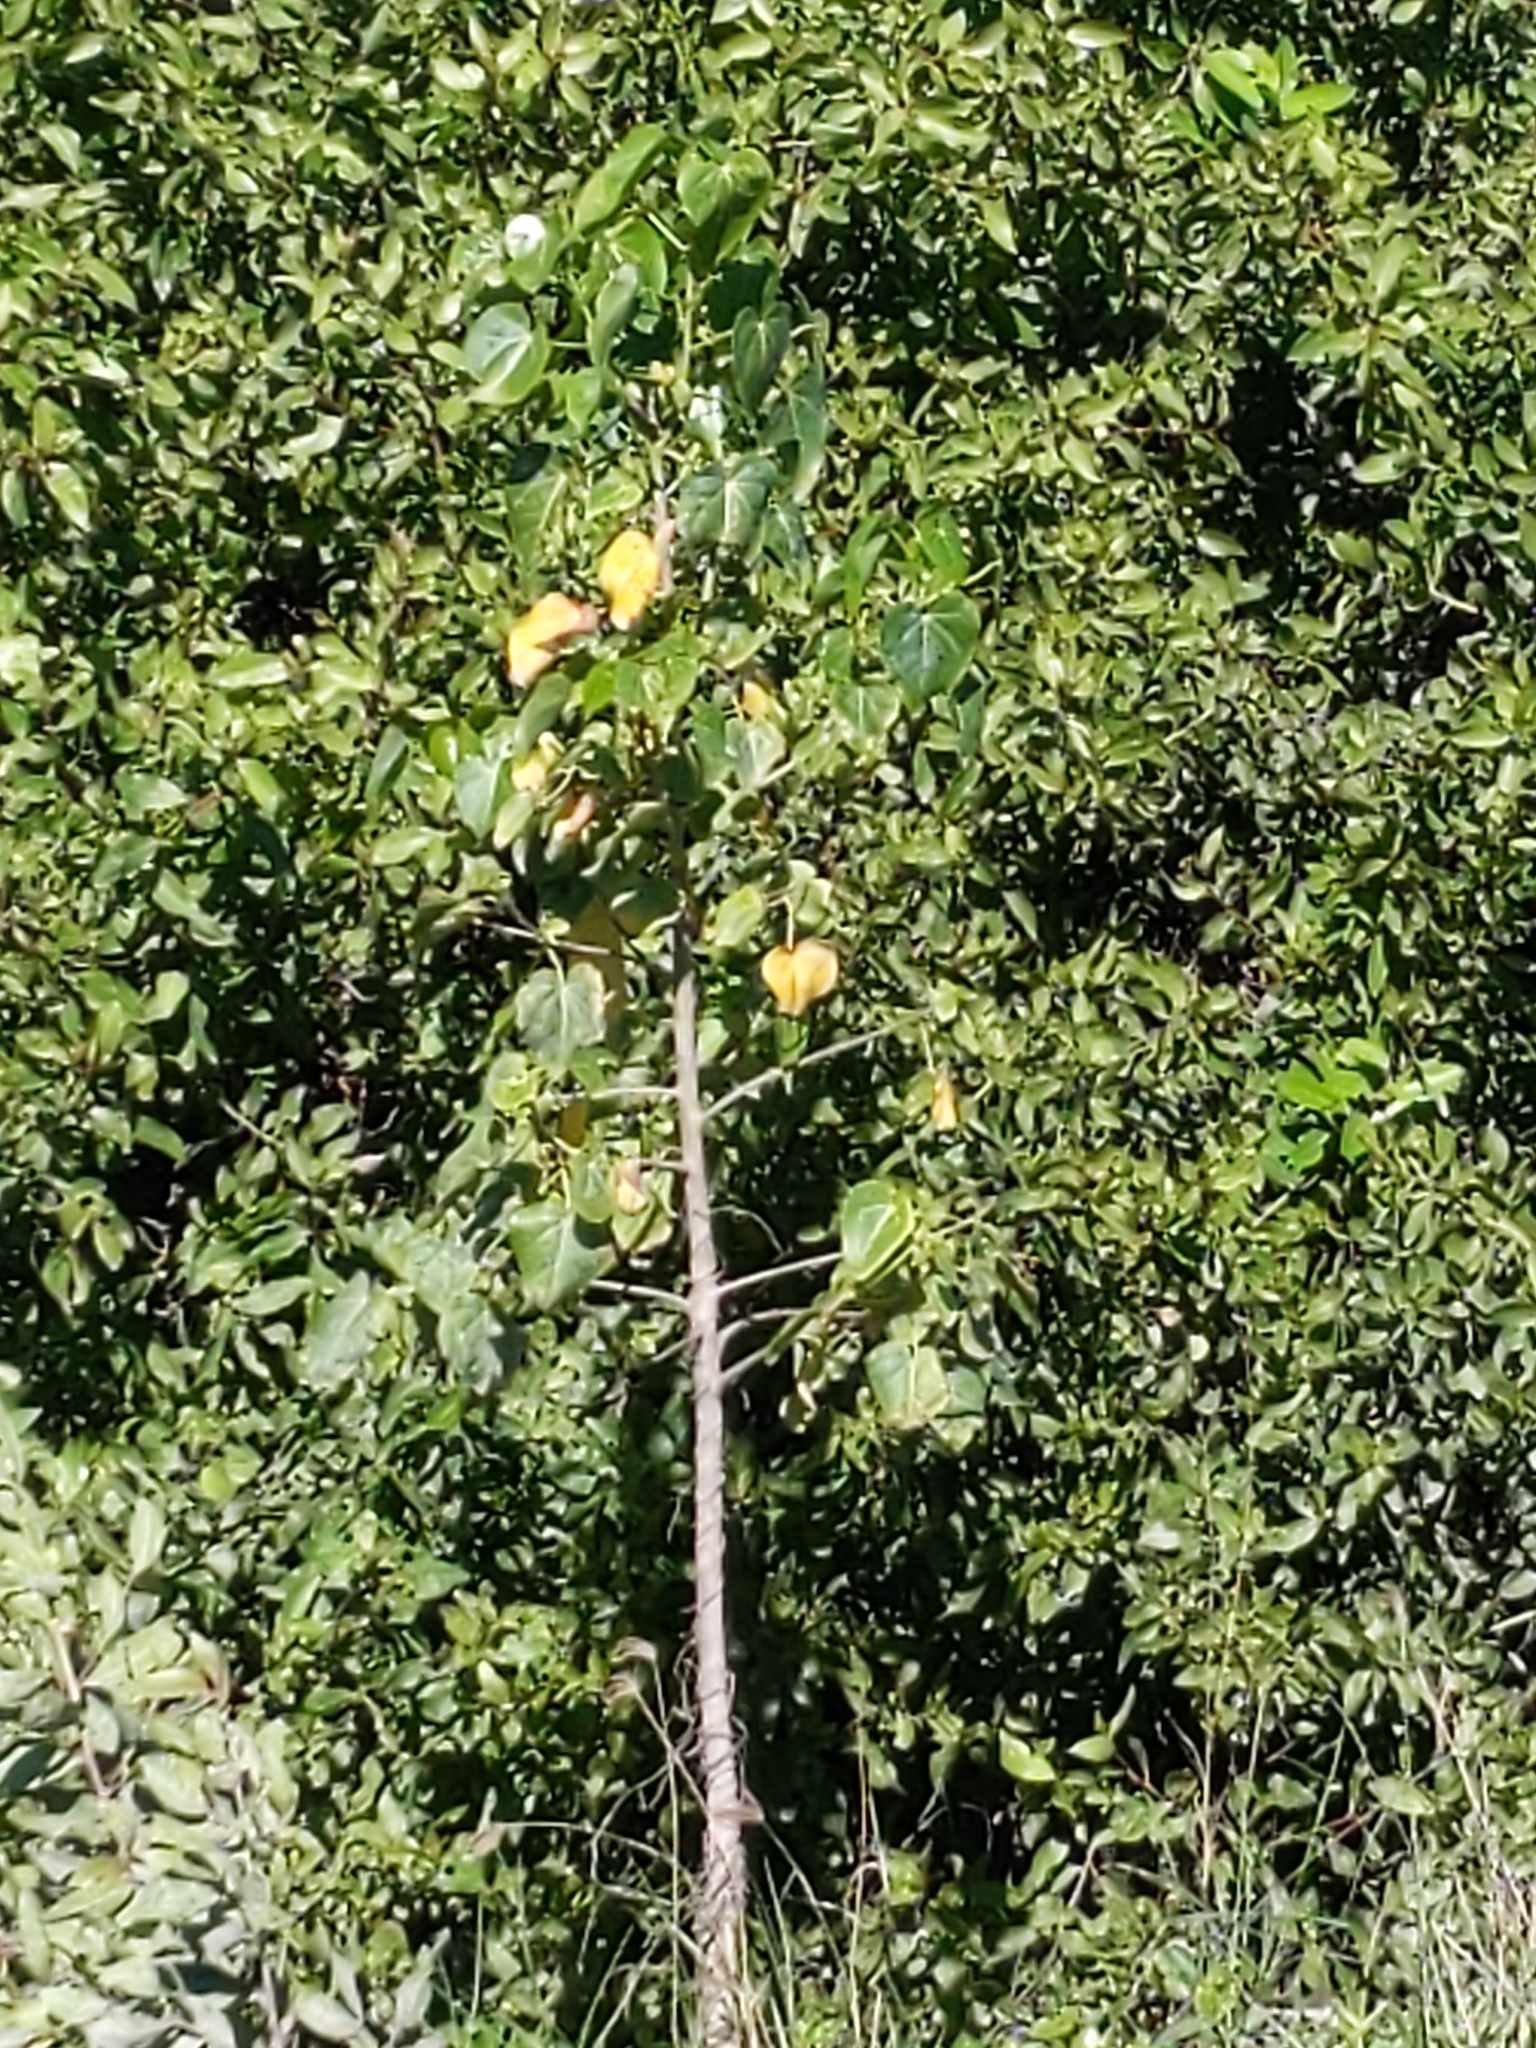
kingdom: Plantae
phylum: Tracheophyta
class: Magnoliopsida
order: Malvales
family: Malvaceae
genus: Thespesia
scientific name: Thespesia populnea
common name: Seaside mahoe
